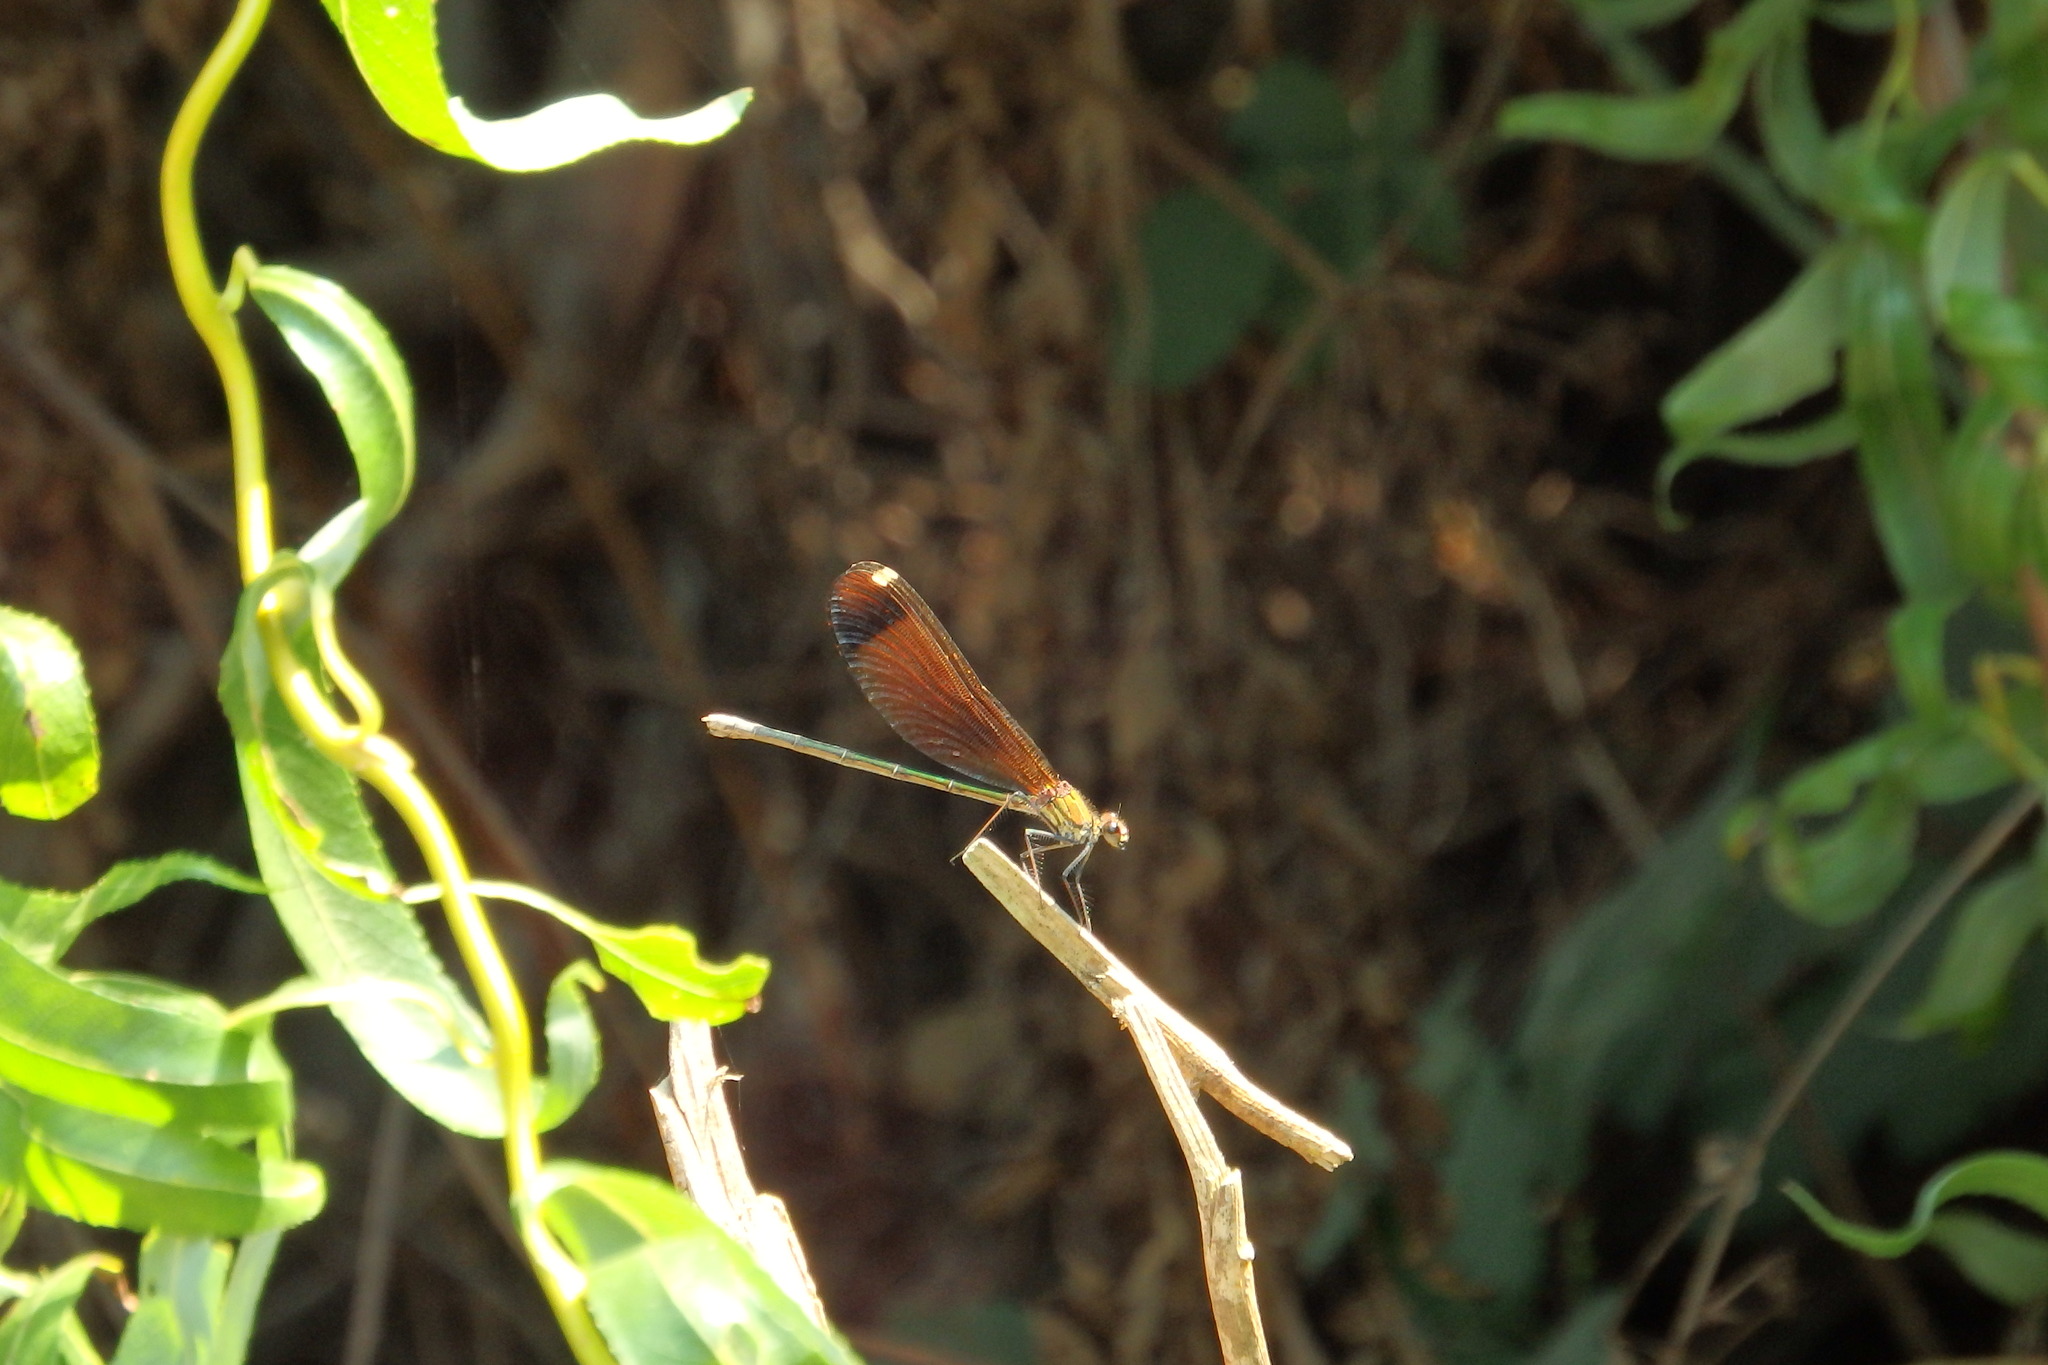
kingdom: Animalia
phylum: Arthropoda
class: Insecta
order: Odonata
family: Calopterygidae
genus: Calopteryx
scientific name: Calopteryx haemorrhoidalis
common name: Copper demoiselle
